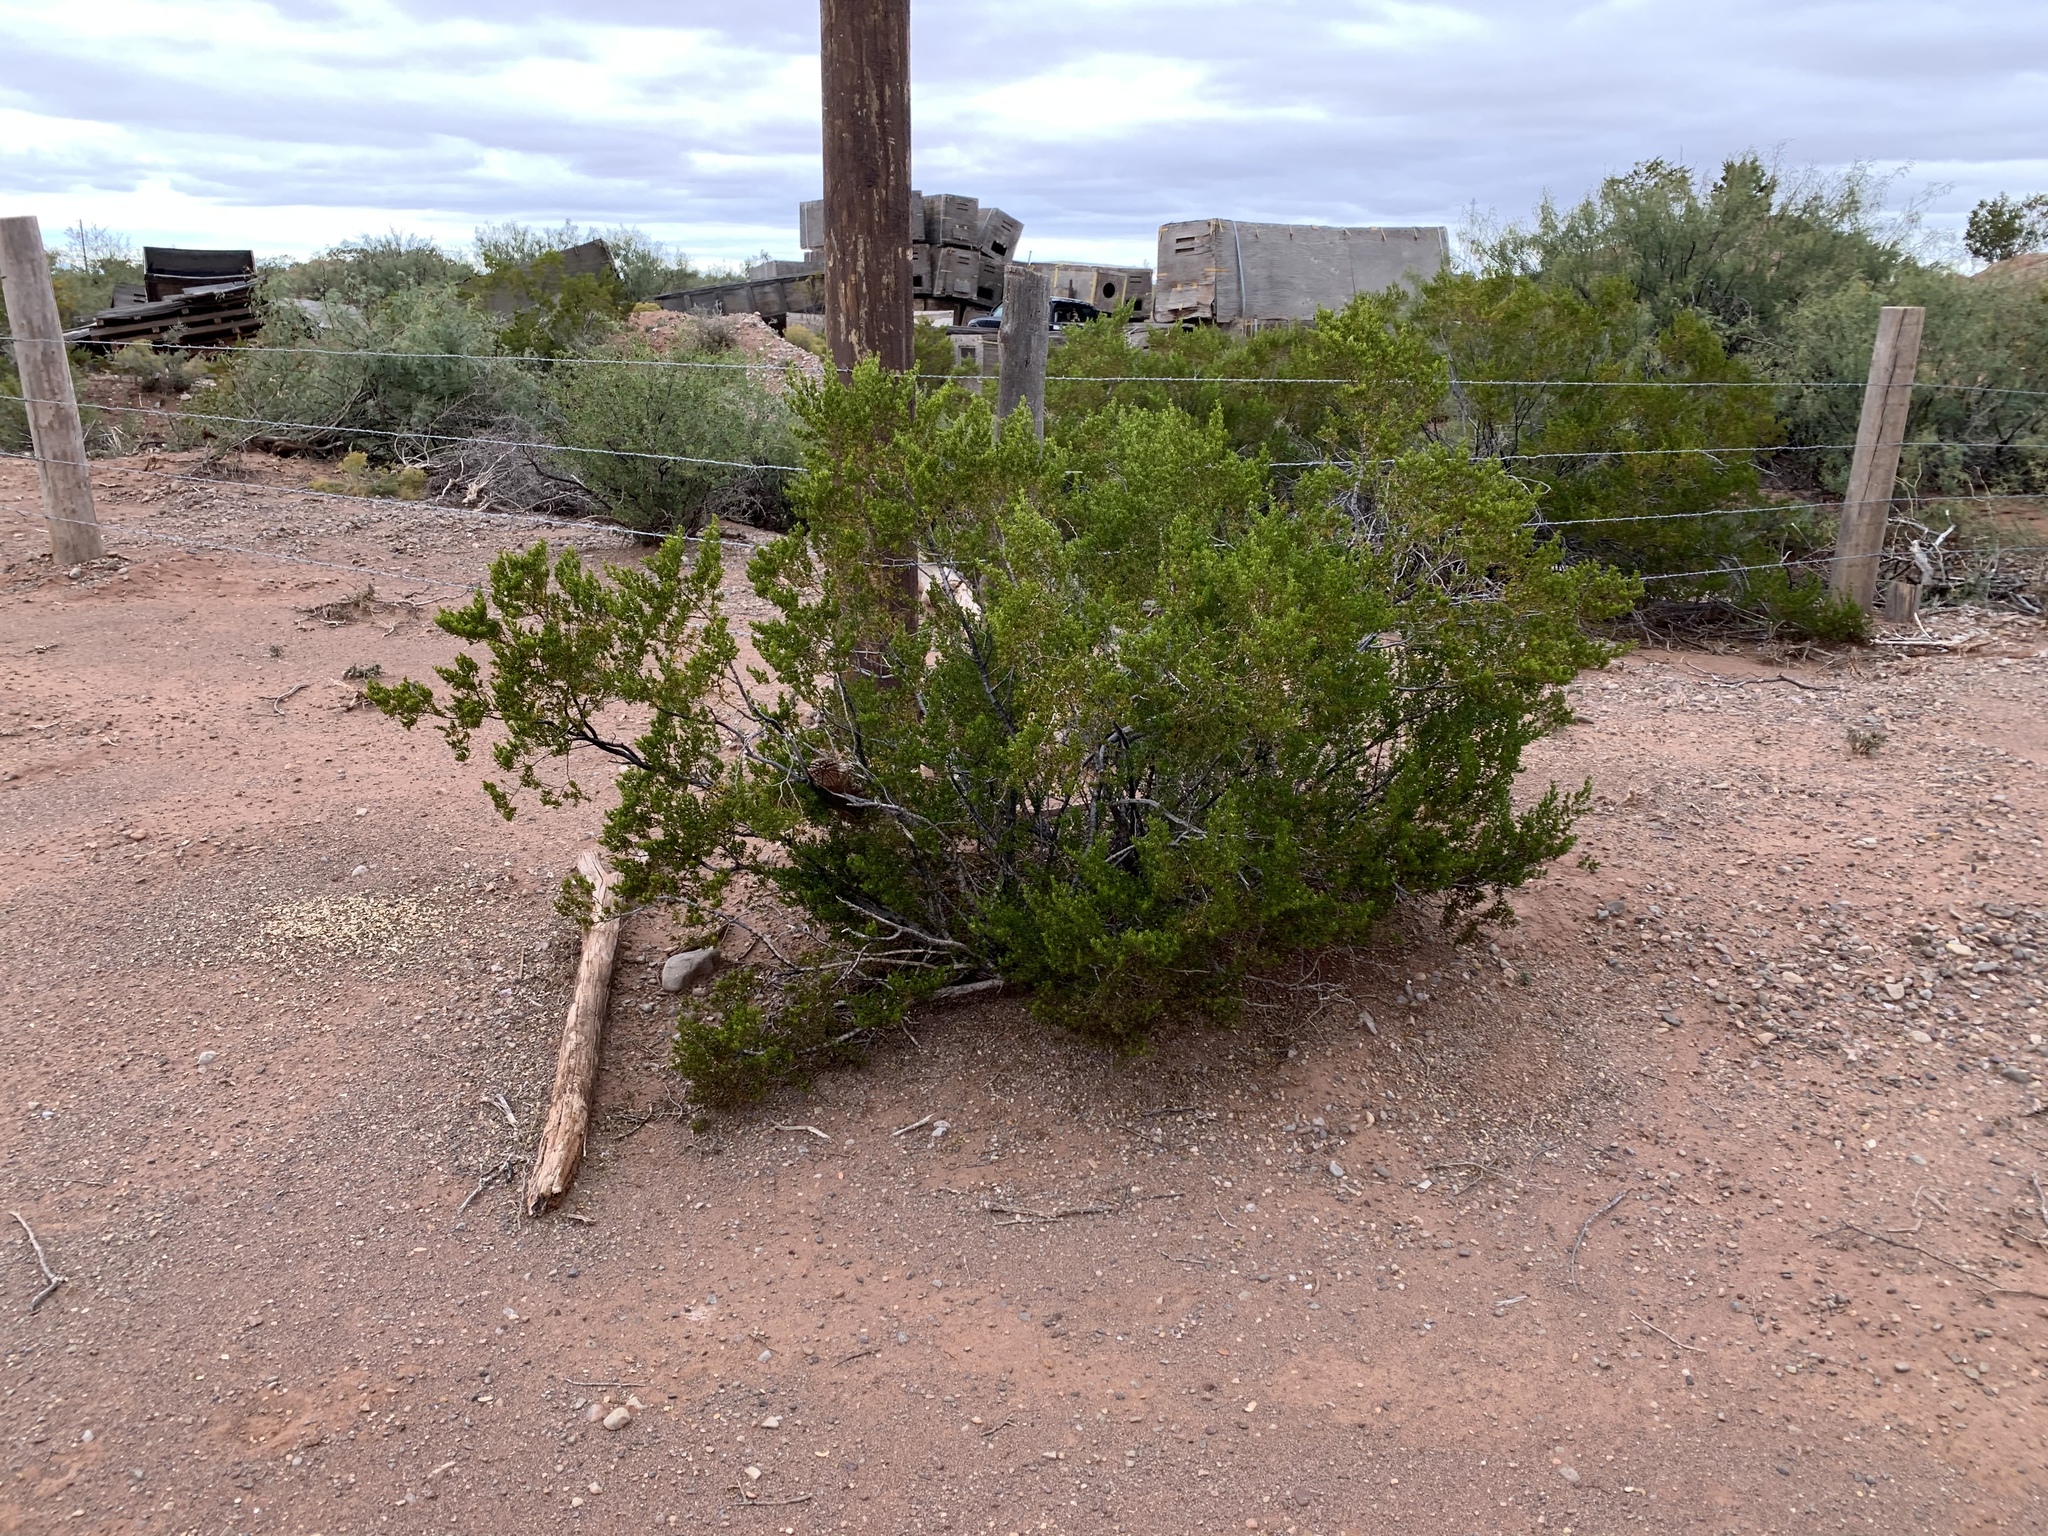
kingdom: Plantae
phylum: Tracheophyta
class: Magnoliopsida
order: Zygophyllales
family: Zygophyllaceae
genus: Larrea
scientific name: Larrea tridentata
